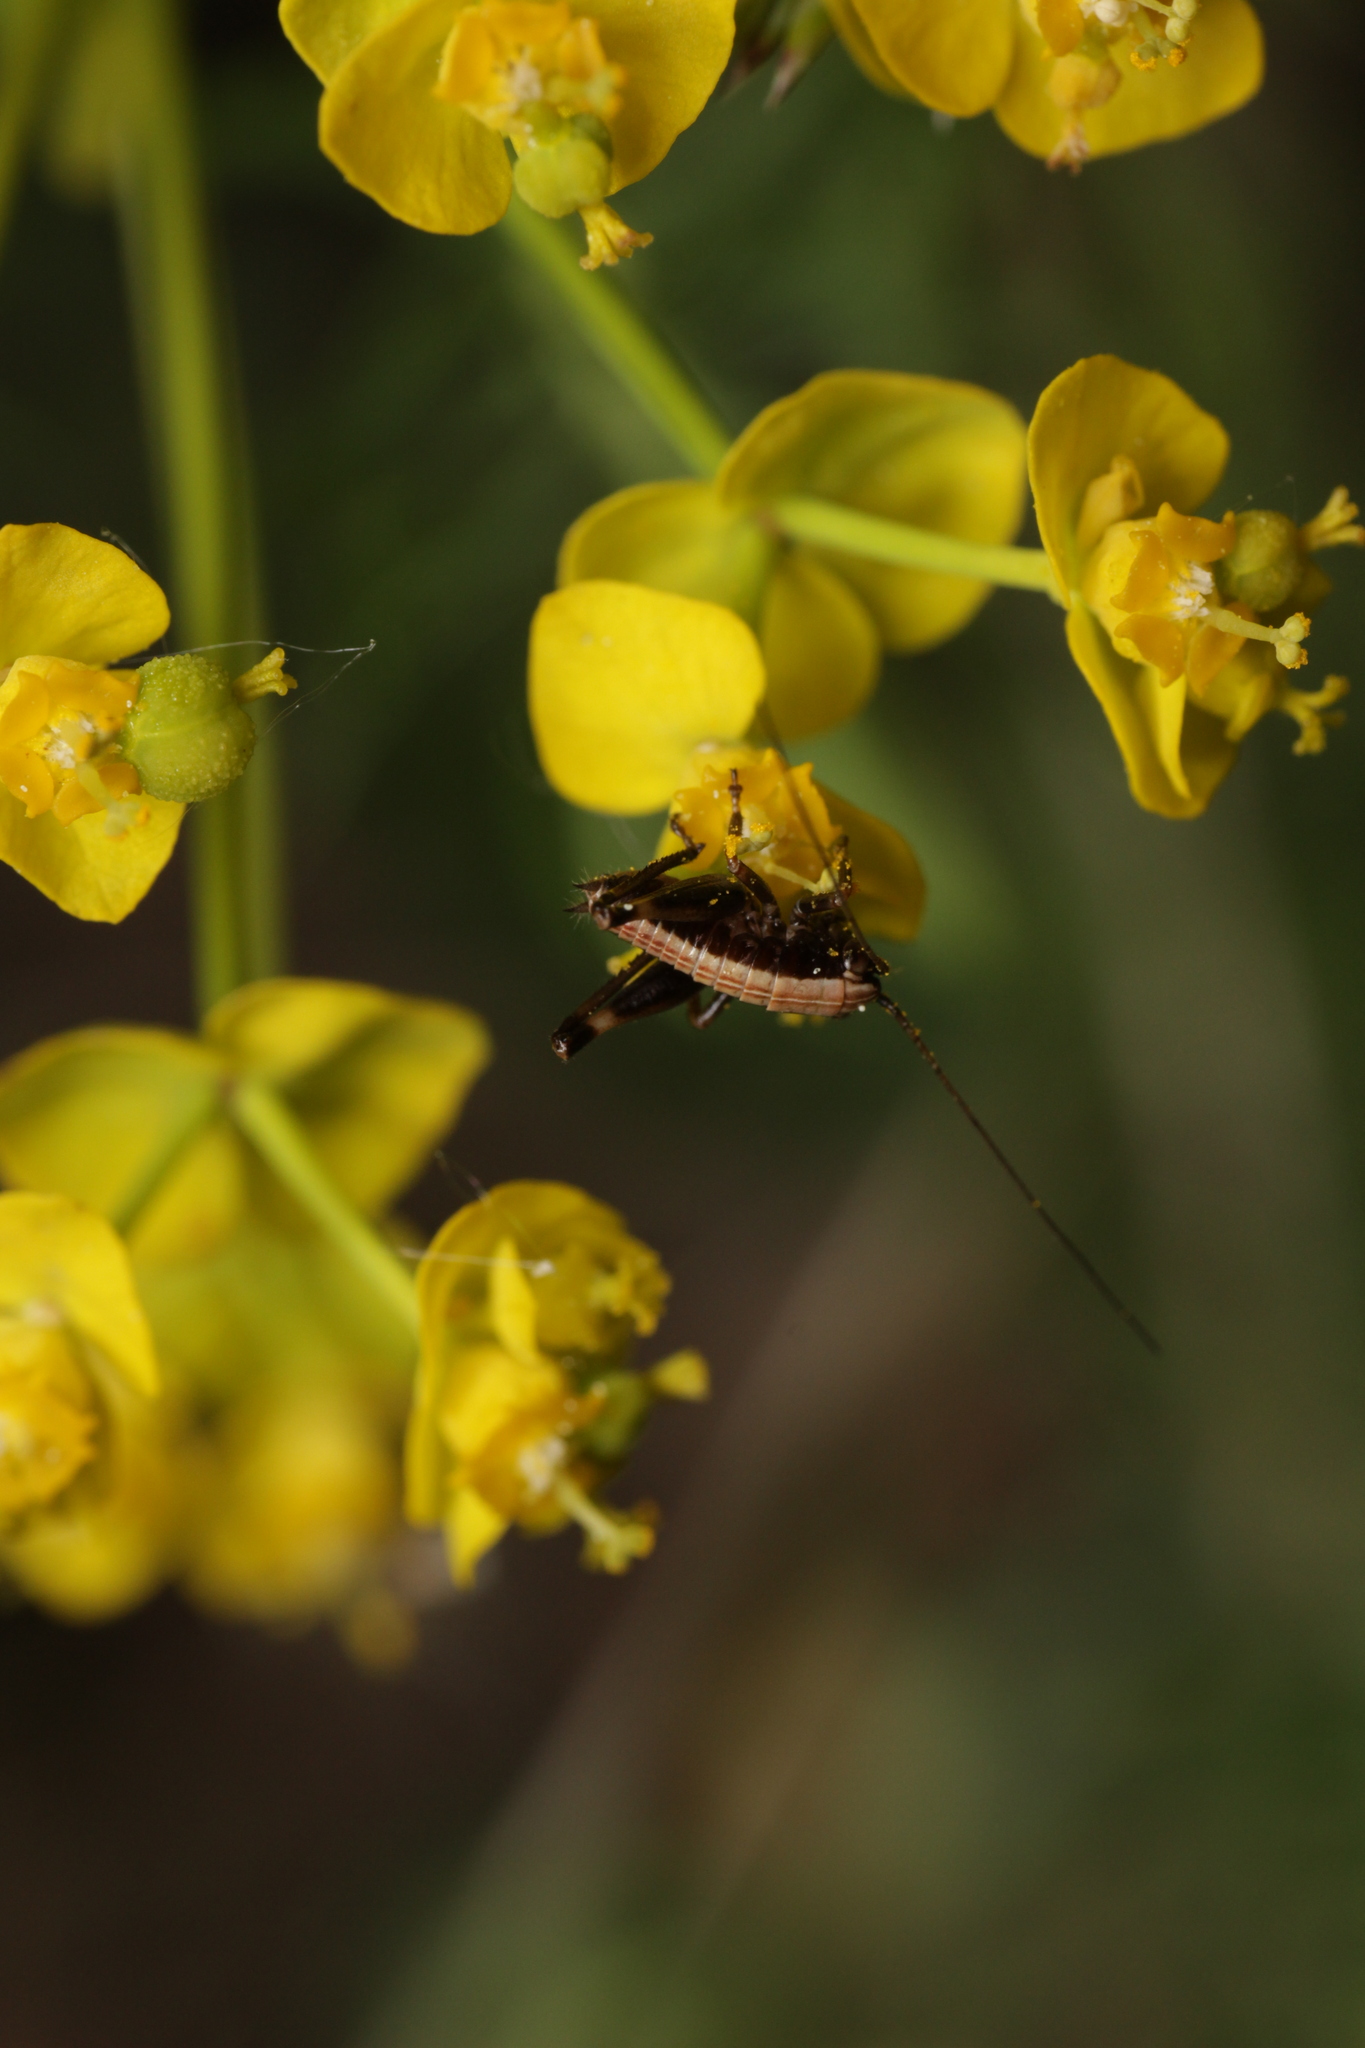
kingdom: Animalia
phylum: Arthropoda
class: Insecta
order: Orthoptera
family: Tettigoniidae
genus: Pholidoptera
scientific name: Pholidoptera griseoaptera
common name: Dark bush-cricket
